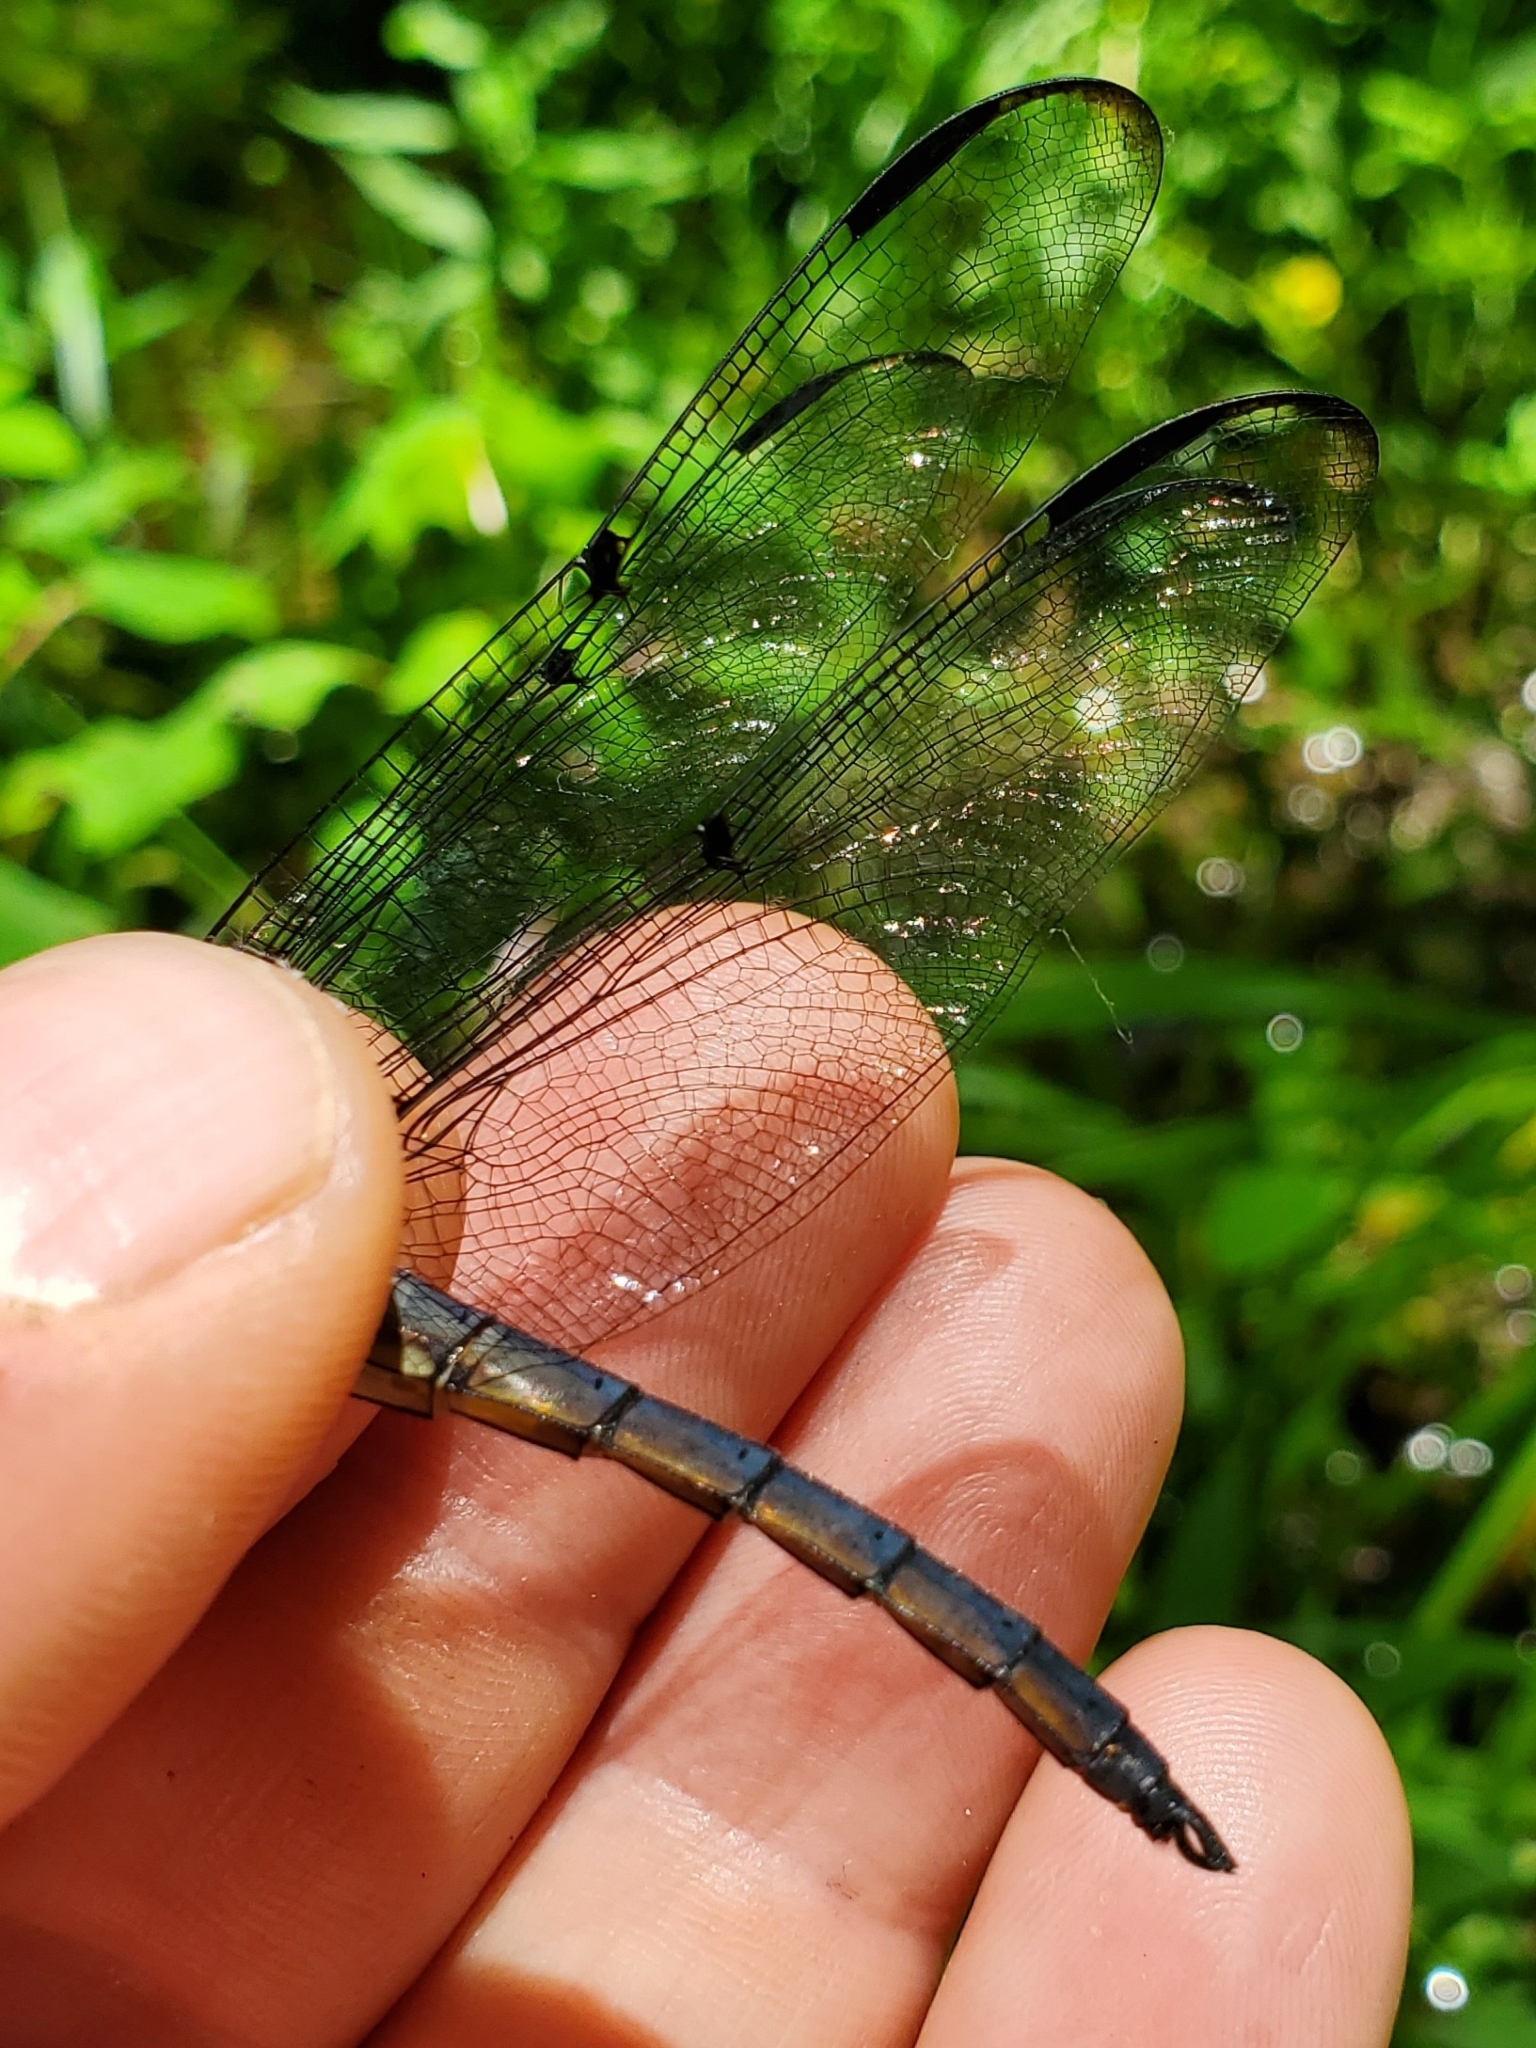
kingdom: Animalia
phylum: Arthropoda
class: Insecta
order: Odonata
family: Libellulidae
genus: Libellula
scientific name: Libellula vibrans
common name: Great blue skimmer
